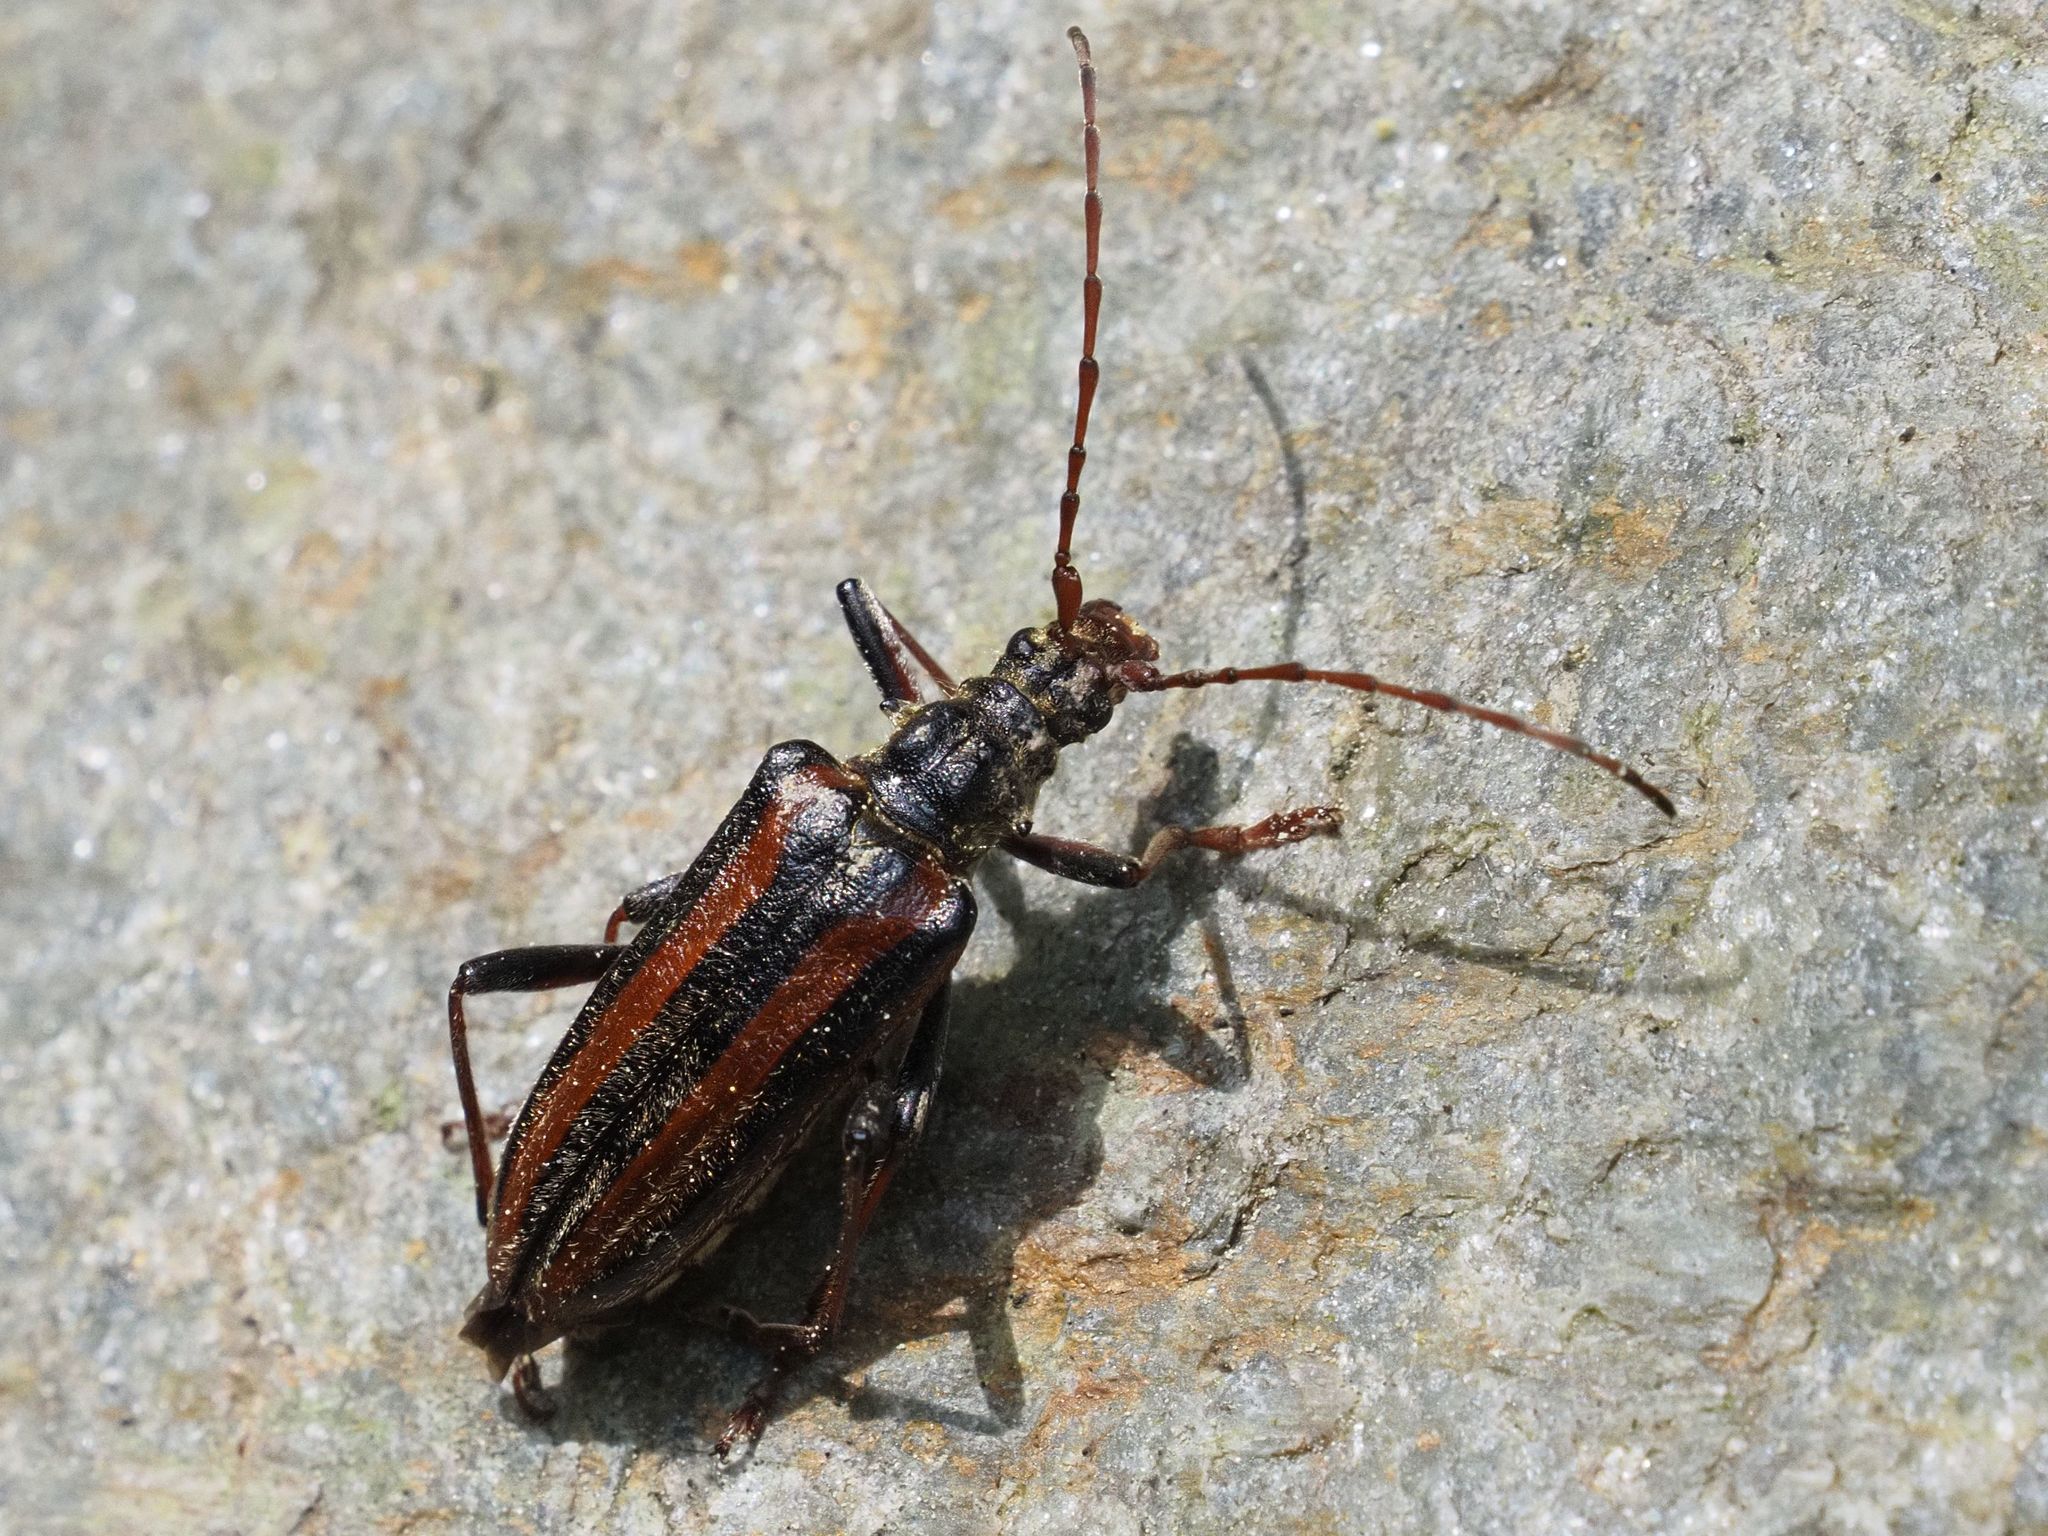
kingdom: Animalia
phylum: Arthropoda
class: Insecta
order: Coleoptera
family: Cerambycidae
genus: Oxymirus
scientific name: Oxymirus cursor
